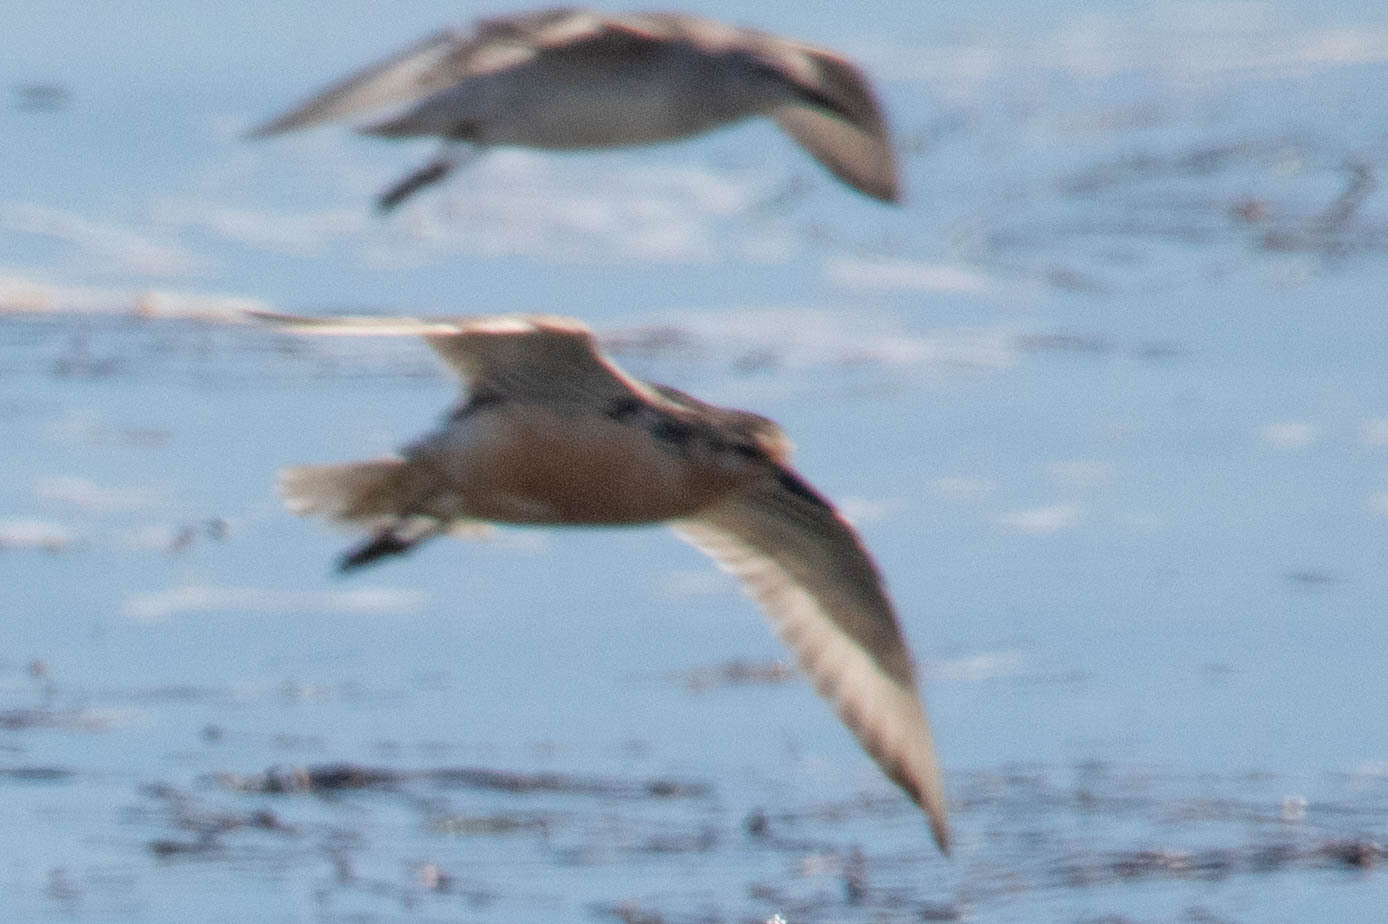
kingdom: Animalia
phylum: Chordata
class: Aves
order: Charadriiformes
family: Scolopacidae
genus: Calidris
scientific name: Calidris canutus
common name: Red knot
